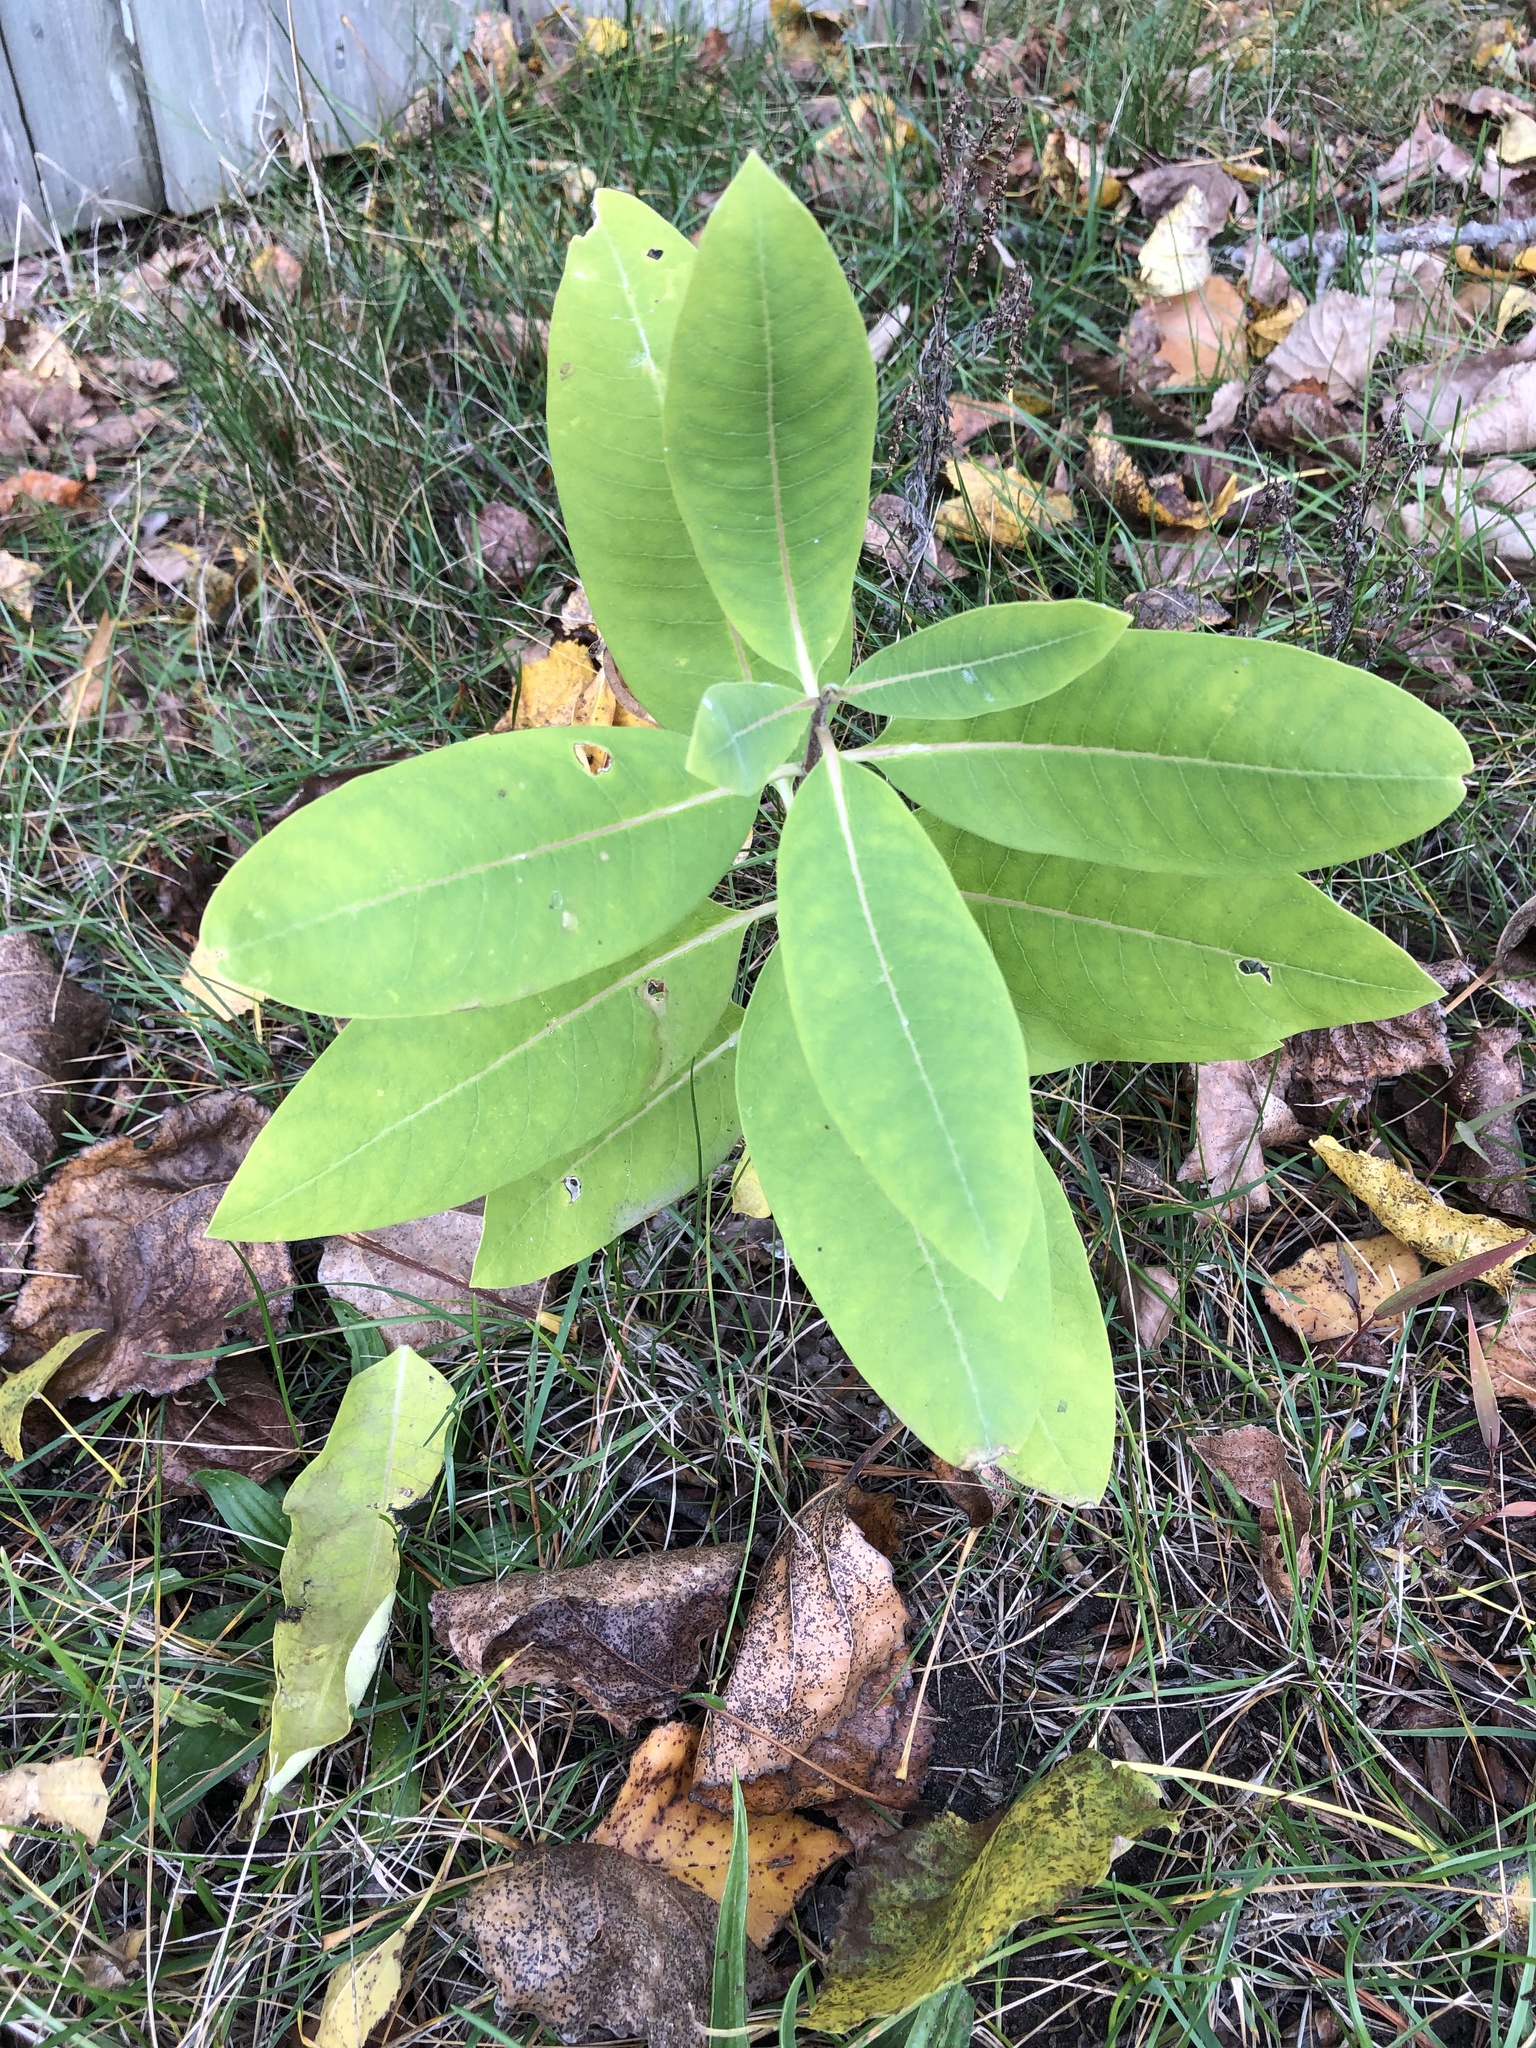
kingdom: Plantae
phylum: Tracheophyta
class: Magnoliopsida
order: Gentianales
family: Apocynaceae
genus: Asclepias
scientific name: Asclepias syriaca
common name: Common milkweed
